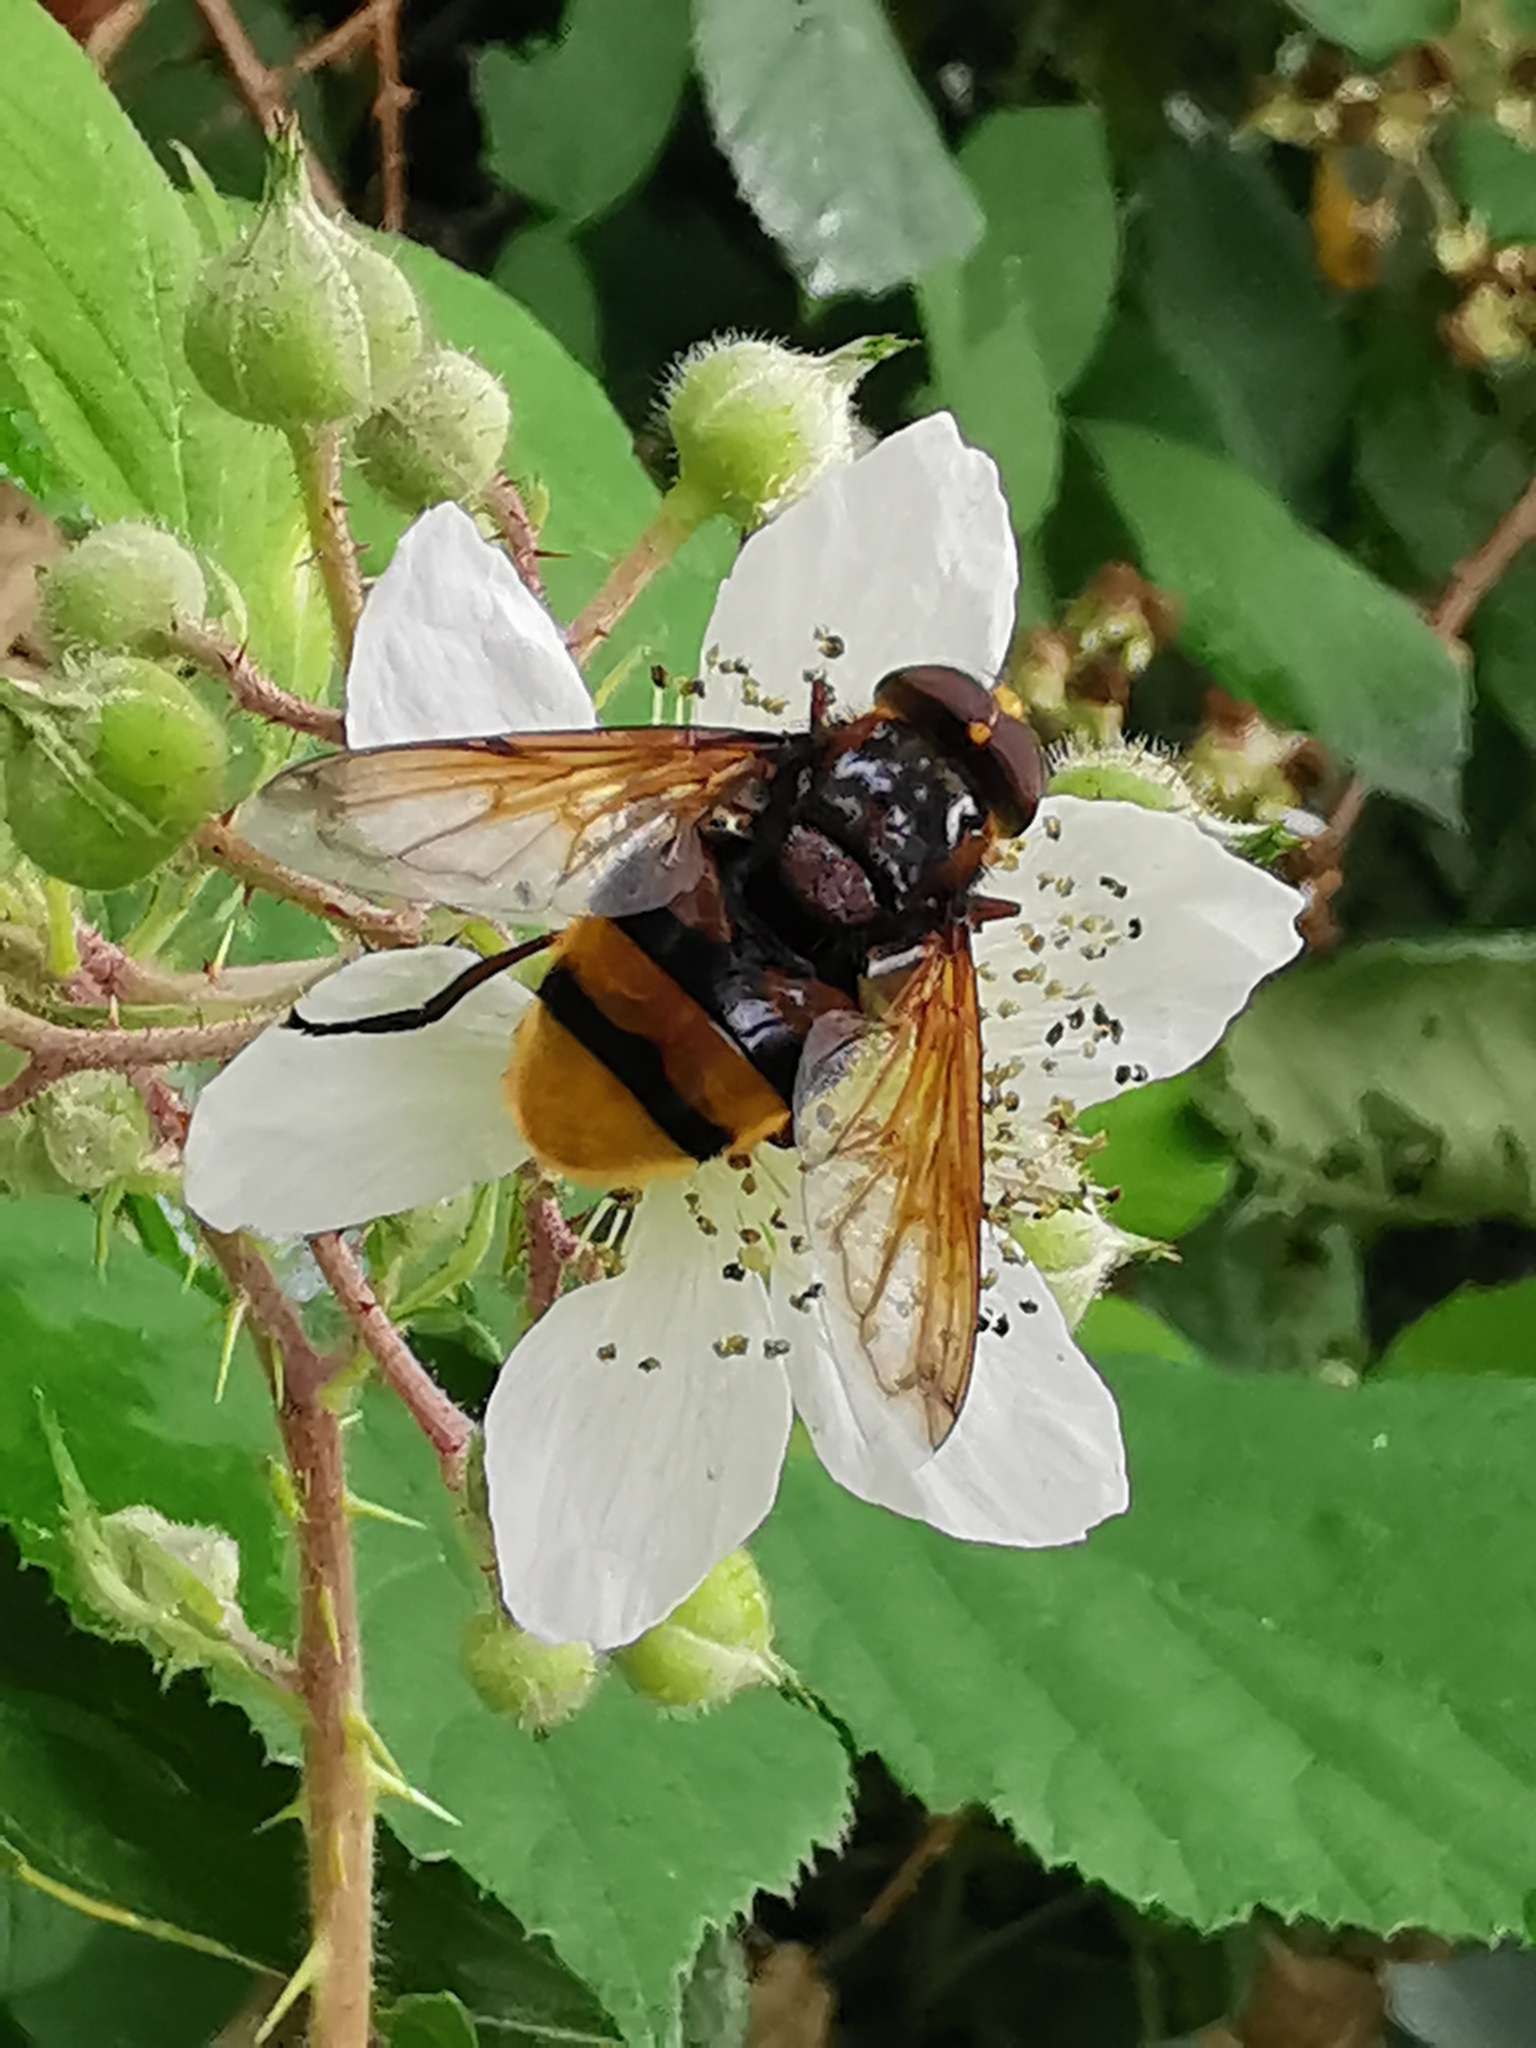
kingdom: Animalia
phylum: Arthropoda
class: Insecta
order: Diptera
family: Syrphidae
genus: Volucella
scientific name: Volucella zonaria
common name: Hornet hoverfly
